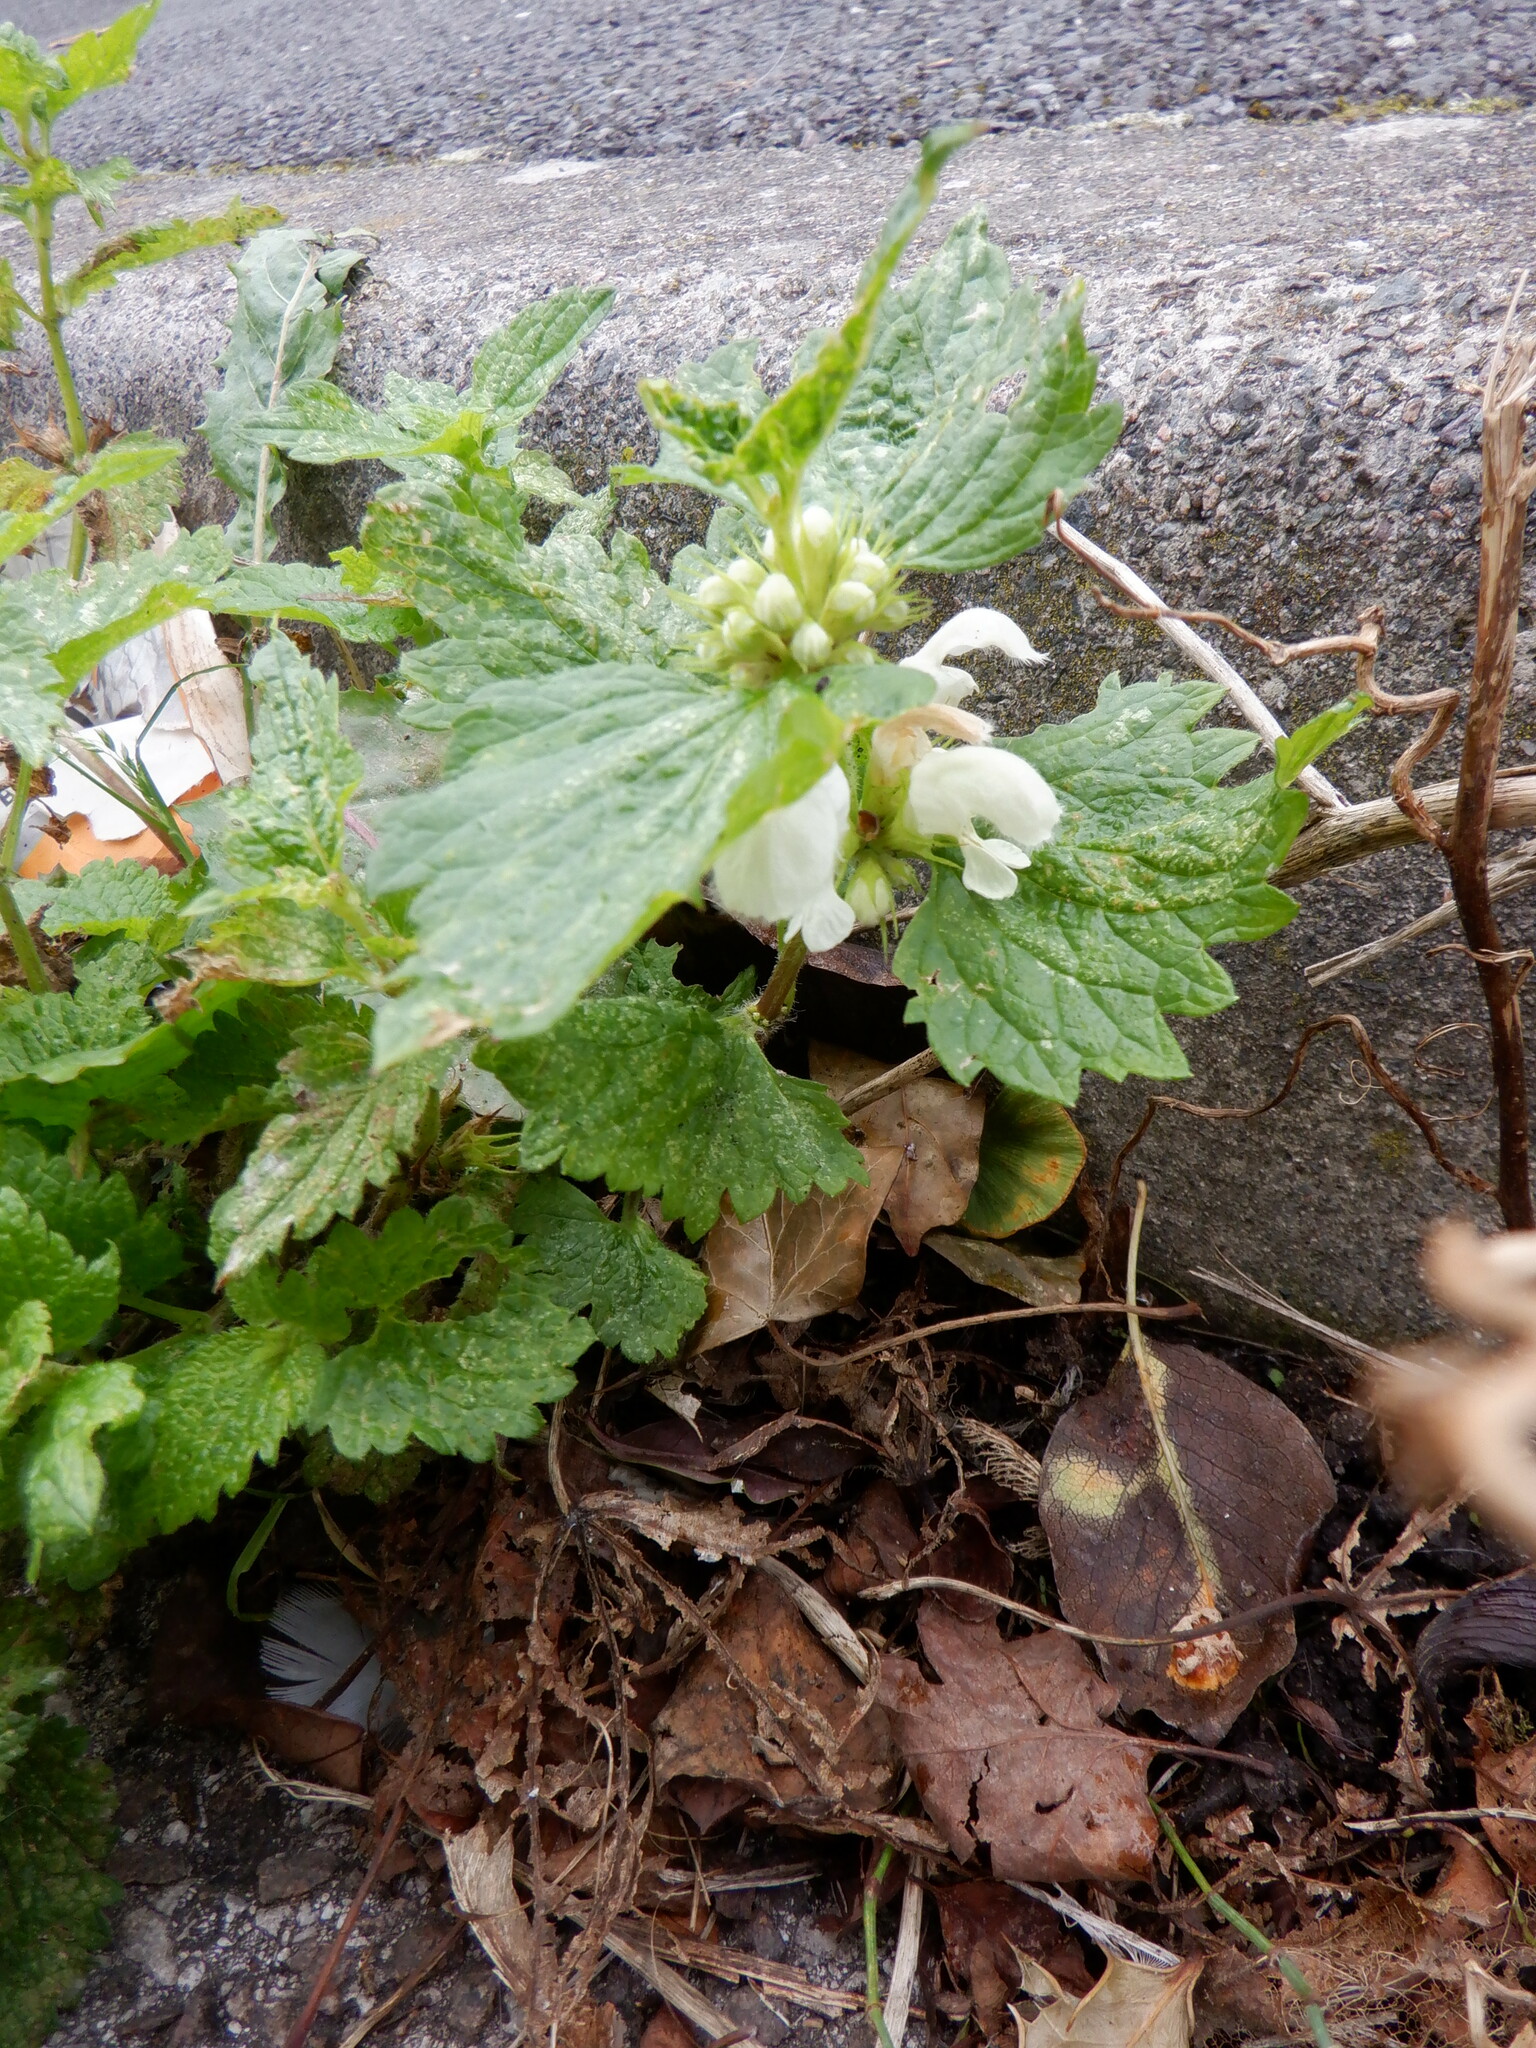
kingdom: Plantae
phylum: Tracheophyta
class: Magnoliopsida
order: Lamiales
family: Lamiaceae
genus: Lamium
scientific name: Lamium album
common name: White dead-nettle
